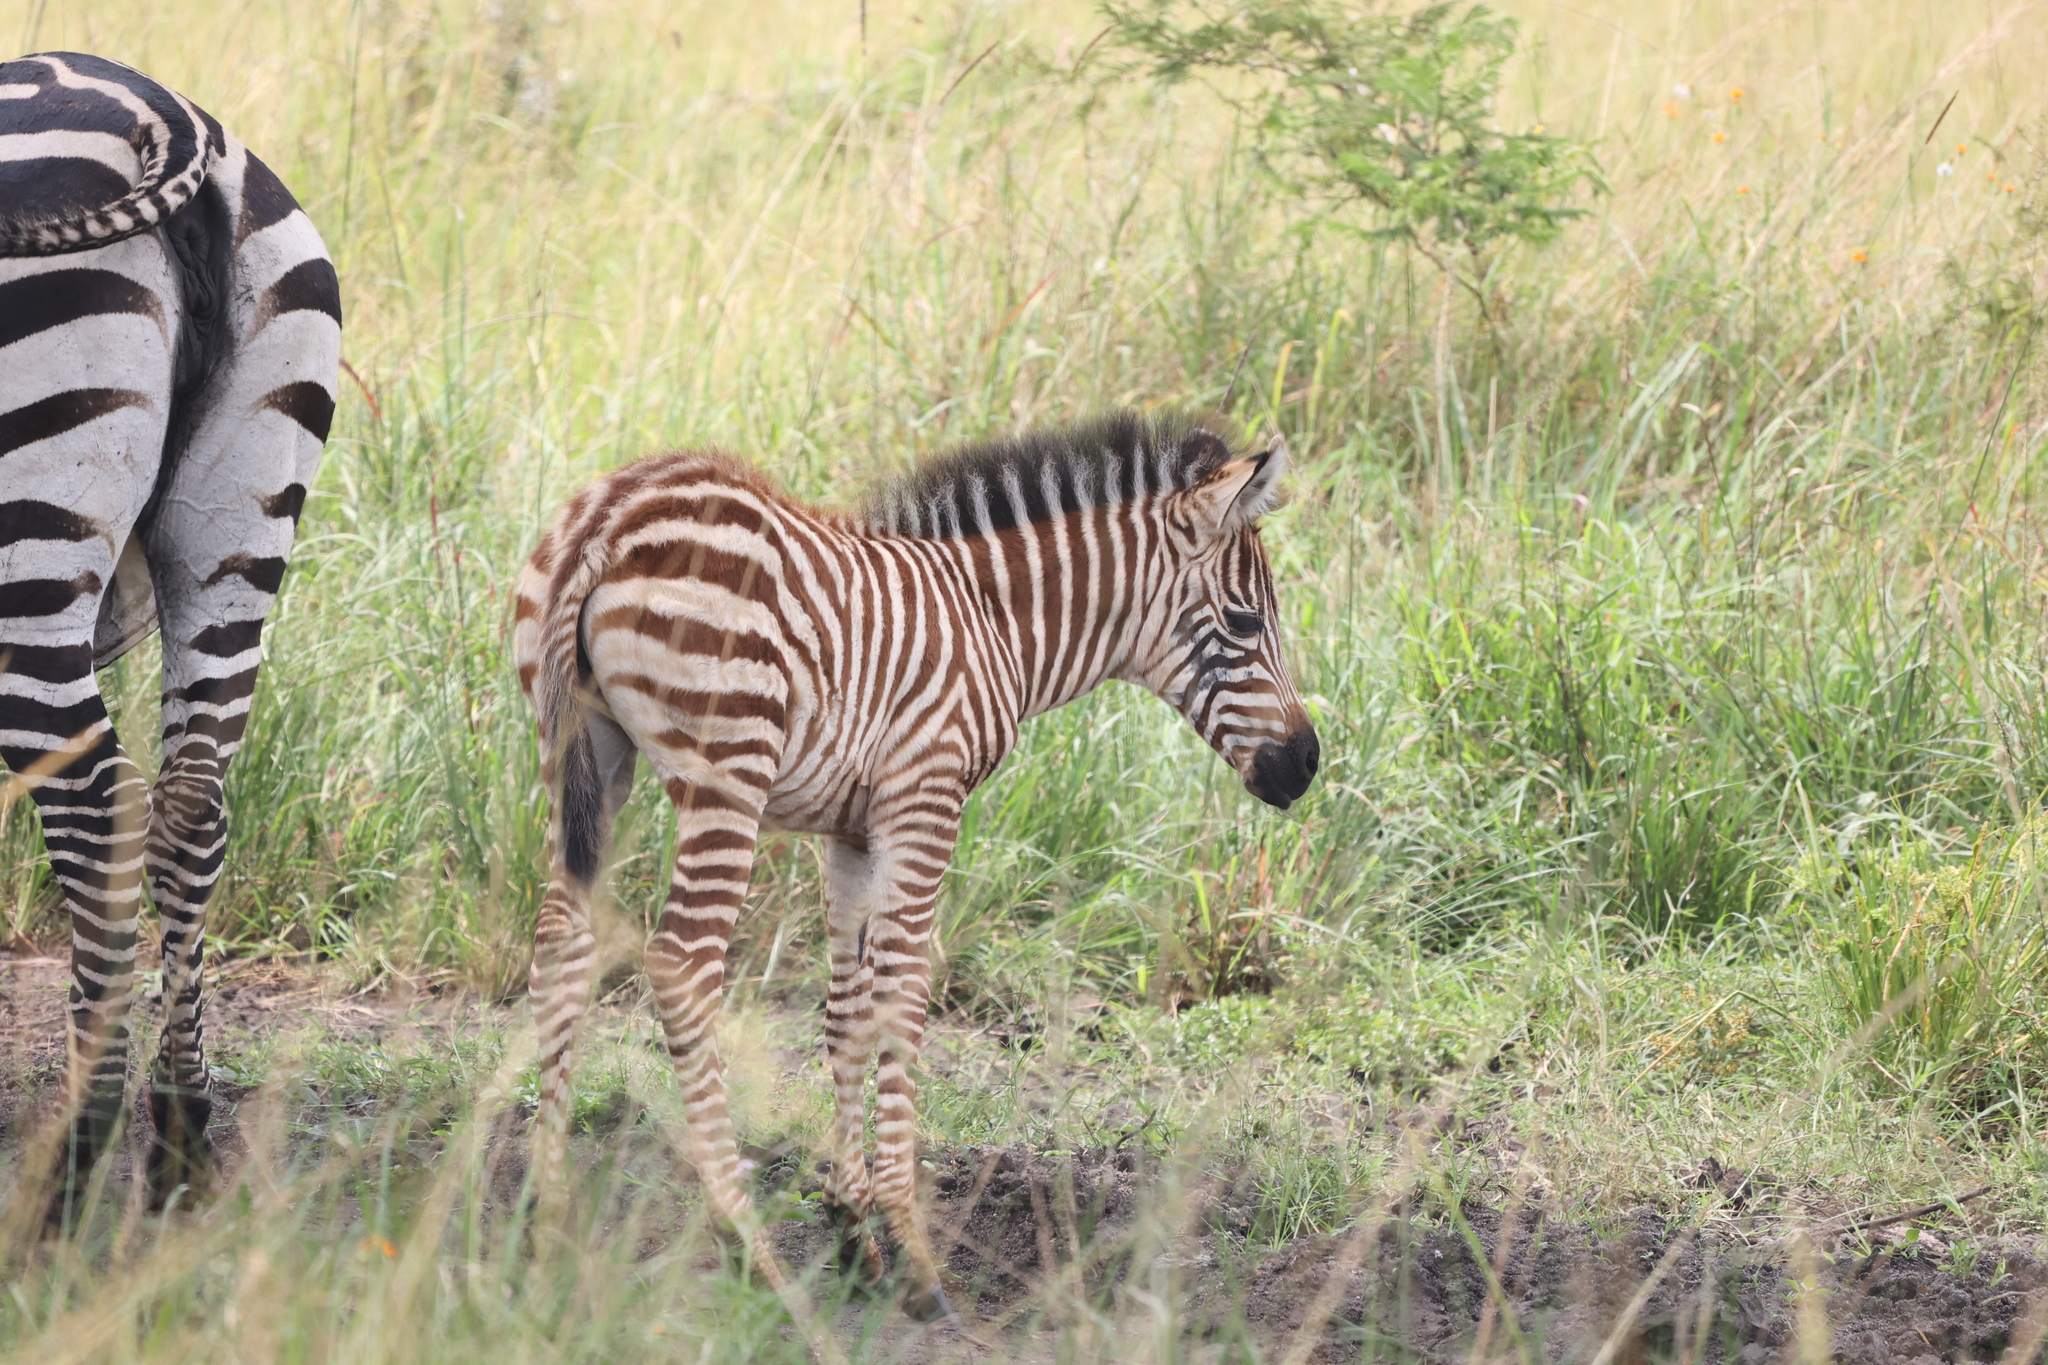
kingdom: Animalia
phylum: Chordata
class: Mammalia
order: Perissodactyla
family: Equidae
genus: Equus
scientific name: Equus quagga
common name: Plains zebra
